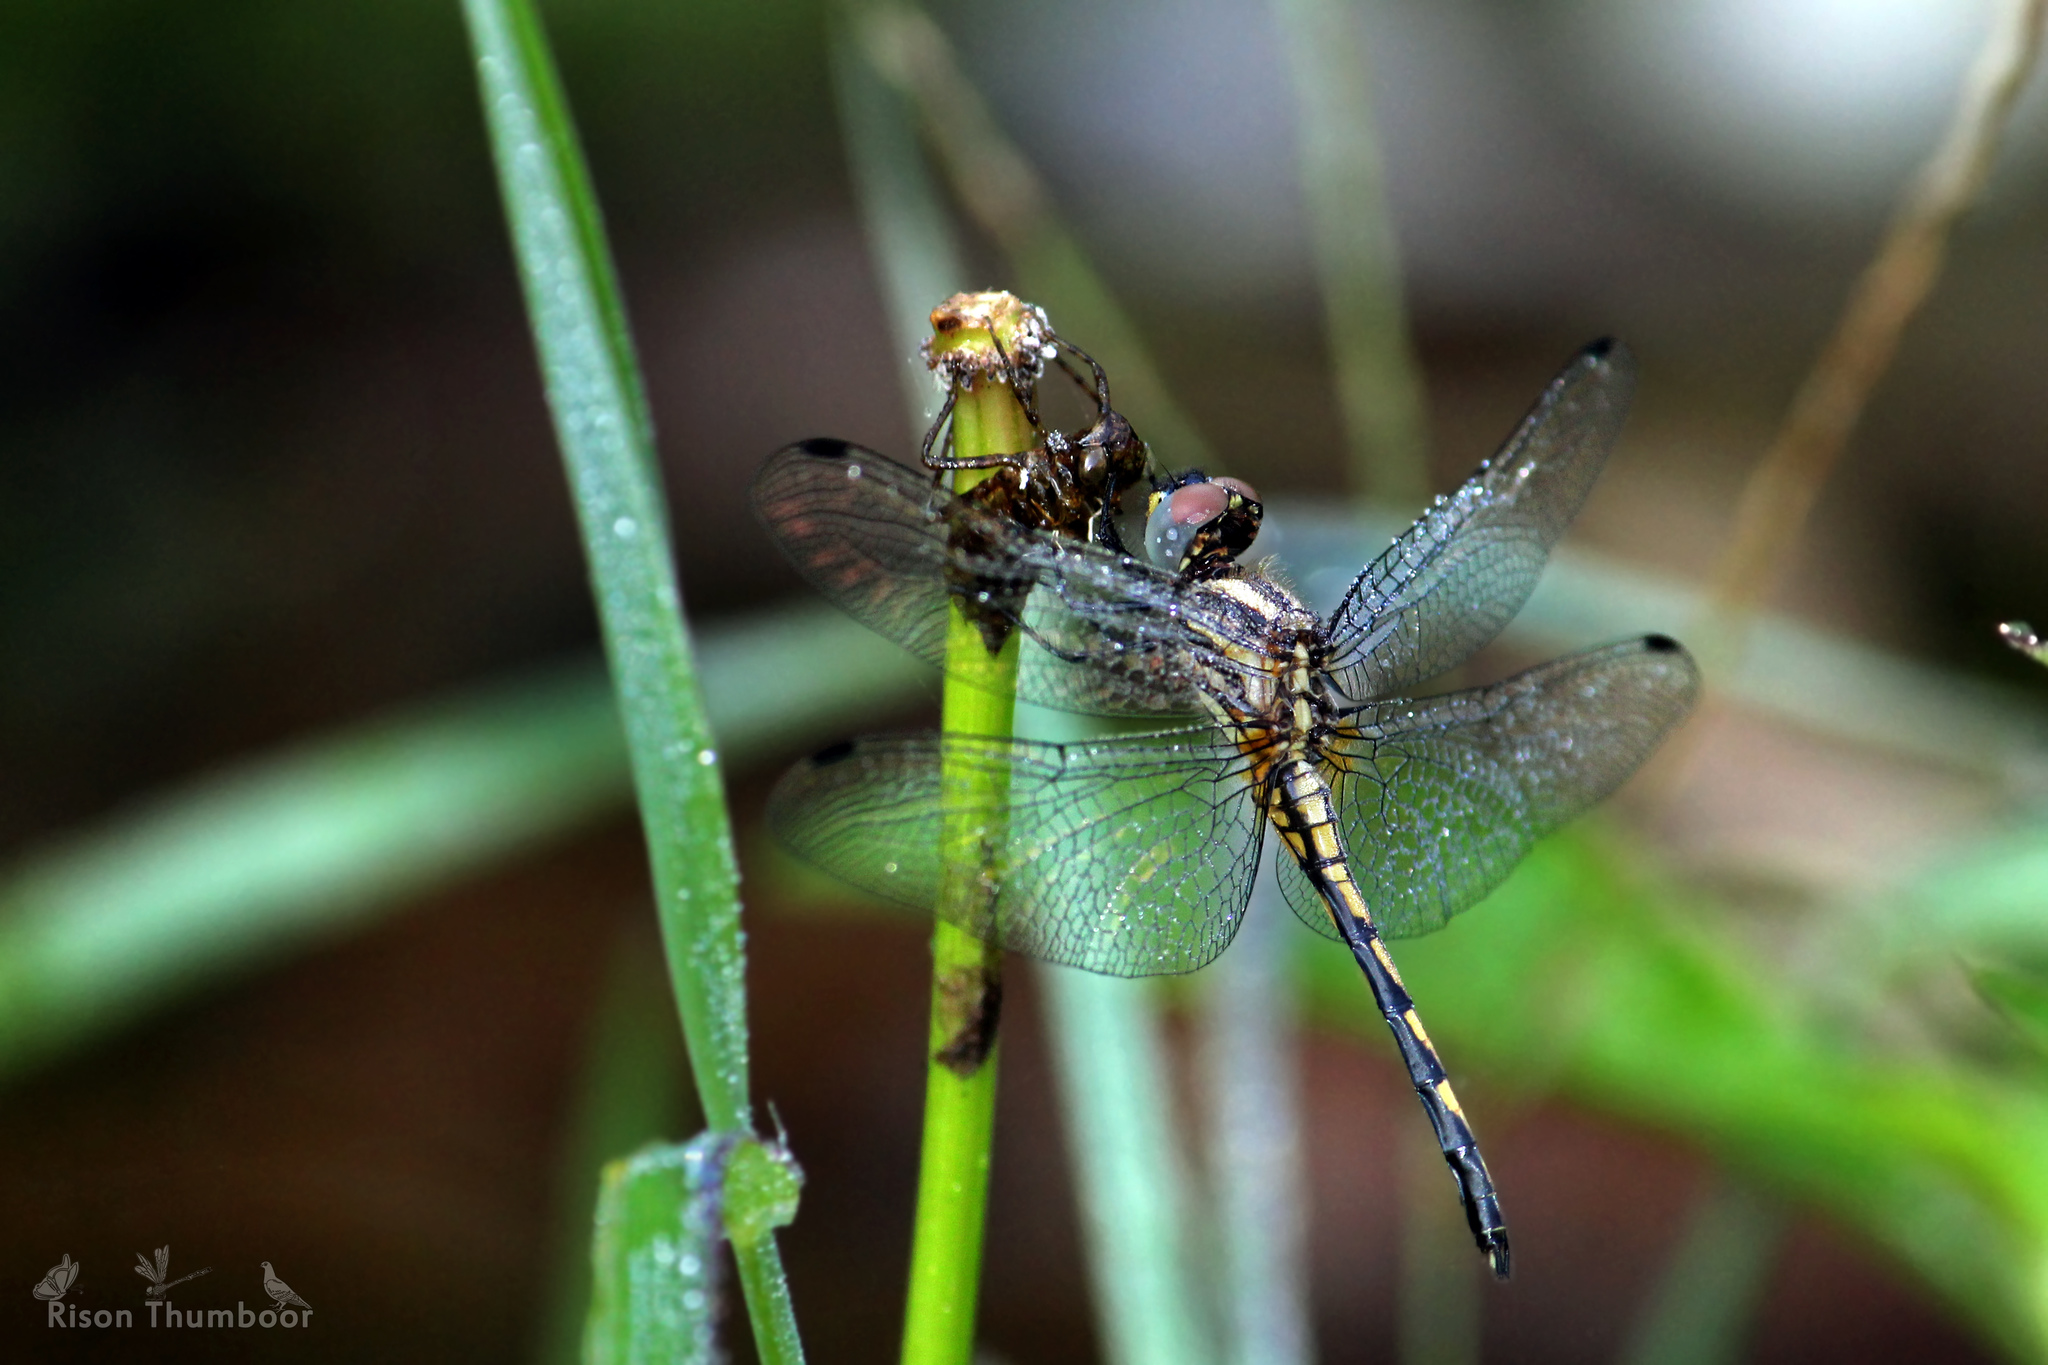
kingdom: Animalia
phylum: Arthropoda
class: Insecta
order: Odonata
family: Libellulidae
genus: Trithemis
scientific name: Trithemis festiva
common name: Indigo dropwing
